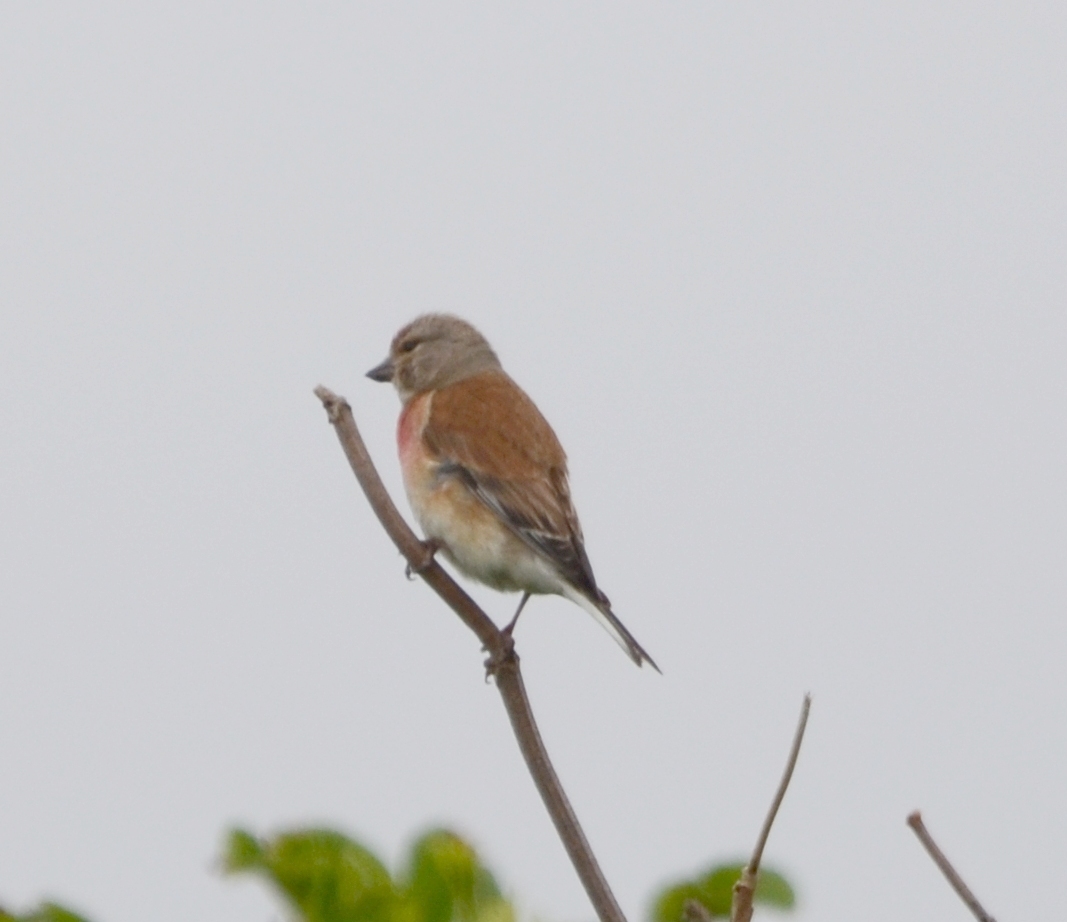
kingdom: Animalia
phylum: Chordata
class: Aves
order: Passeriformes
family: Fringillidae
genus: Linaria
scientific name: Linaria cannabina
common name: Common linnet
